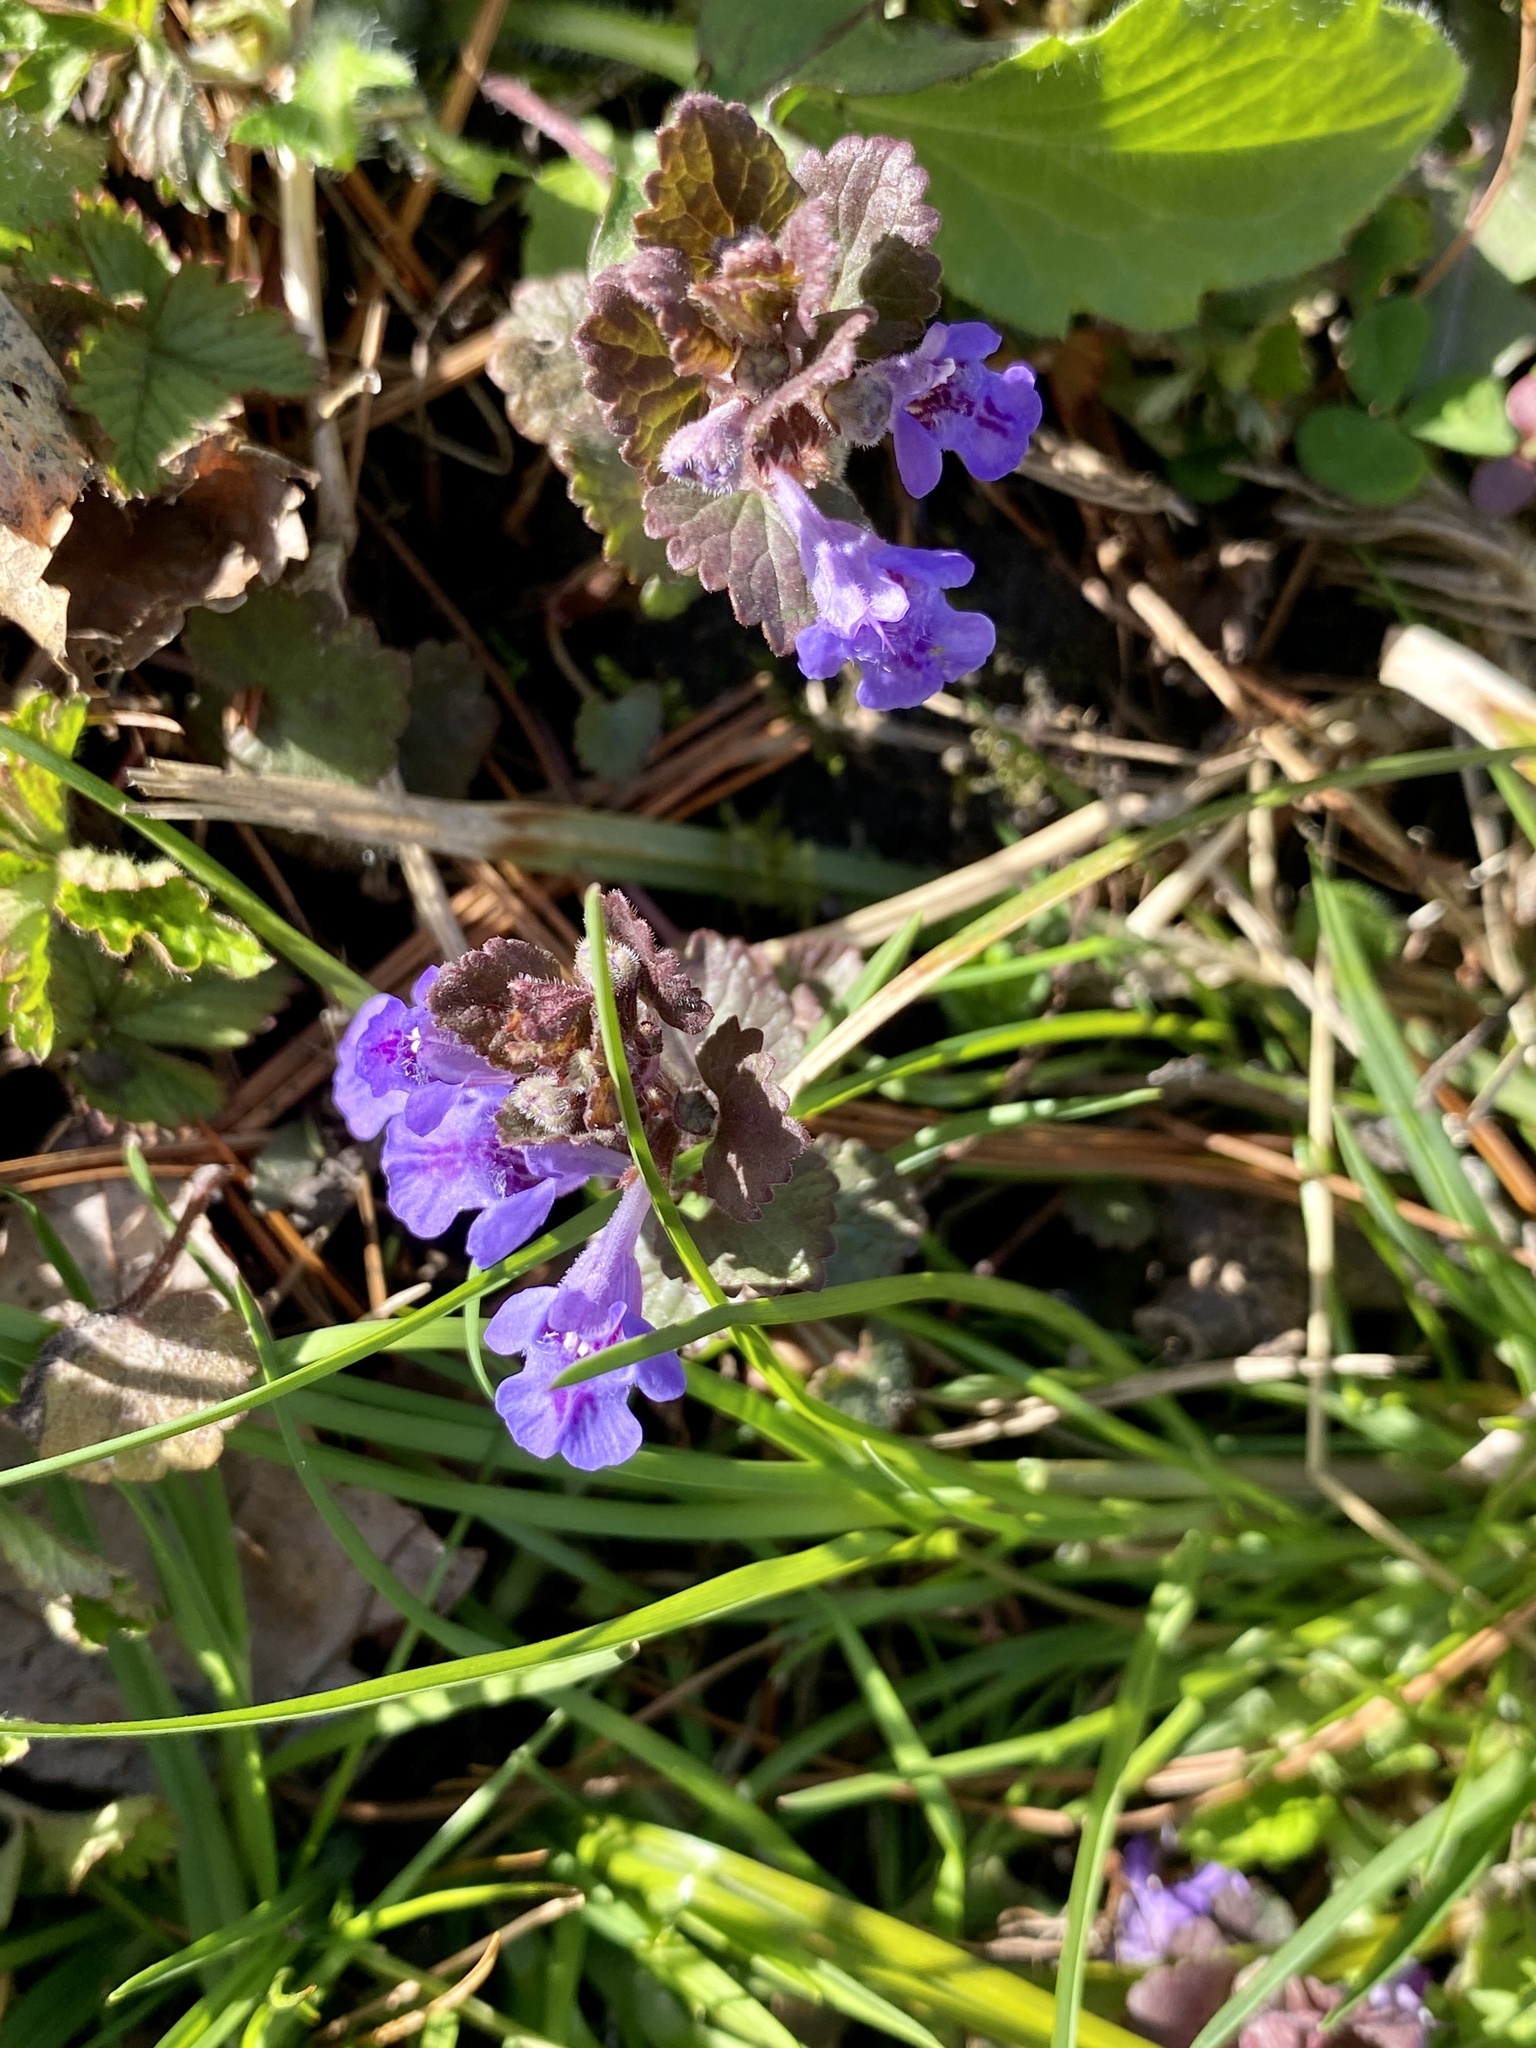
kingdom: Plantae
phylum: Tracheophyta
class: Magnoliopsida
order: Lamiales
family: Lamiaceae
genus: Glechoma
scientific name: Glechoma hederacea
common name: Ground ivy
